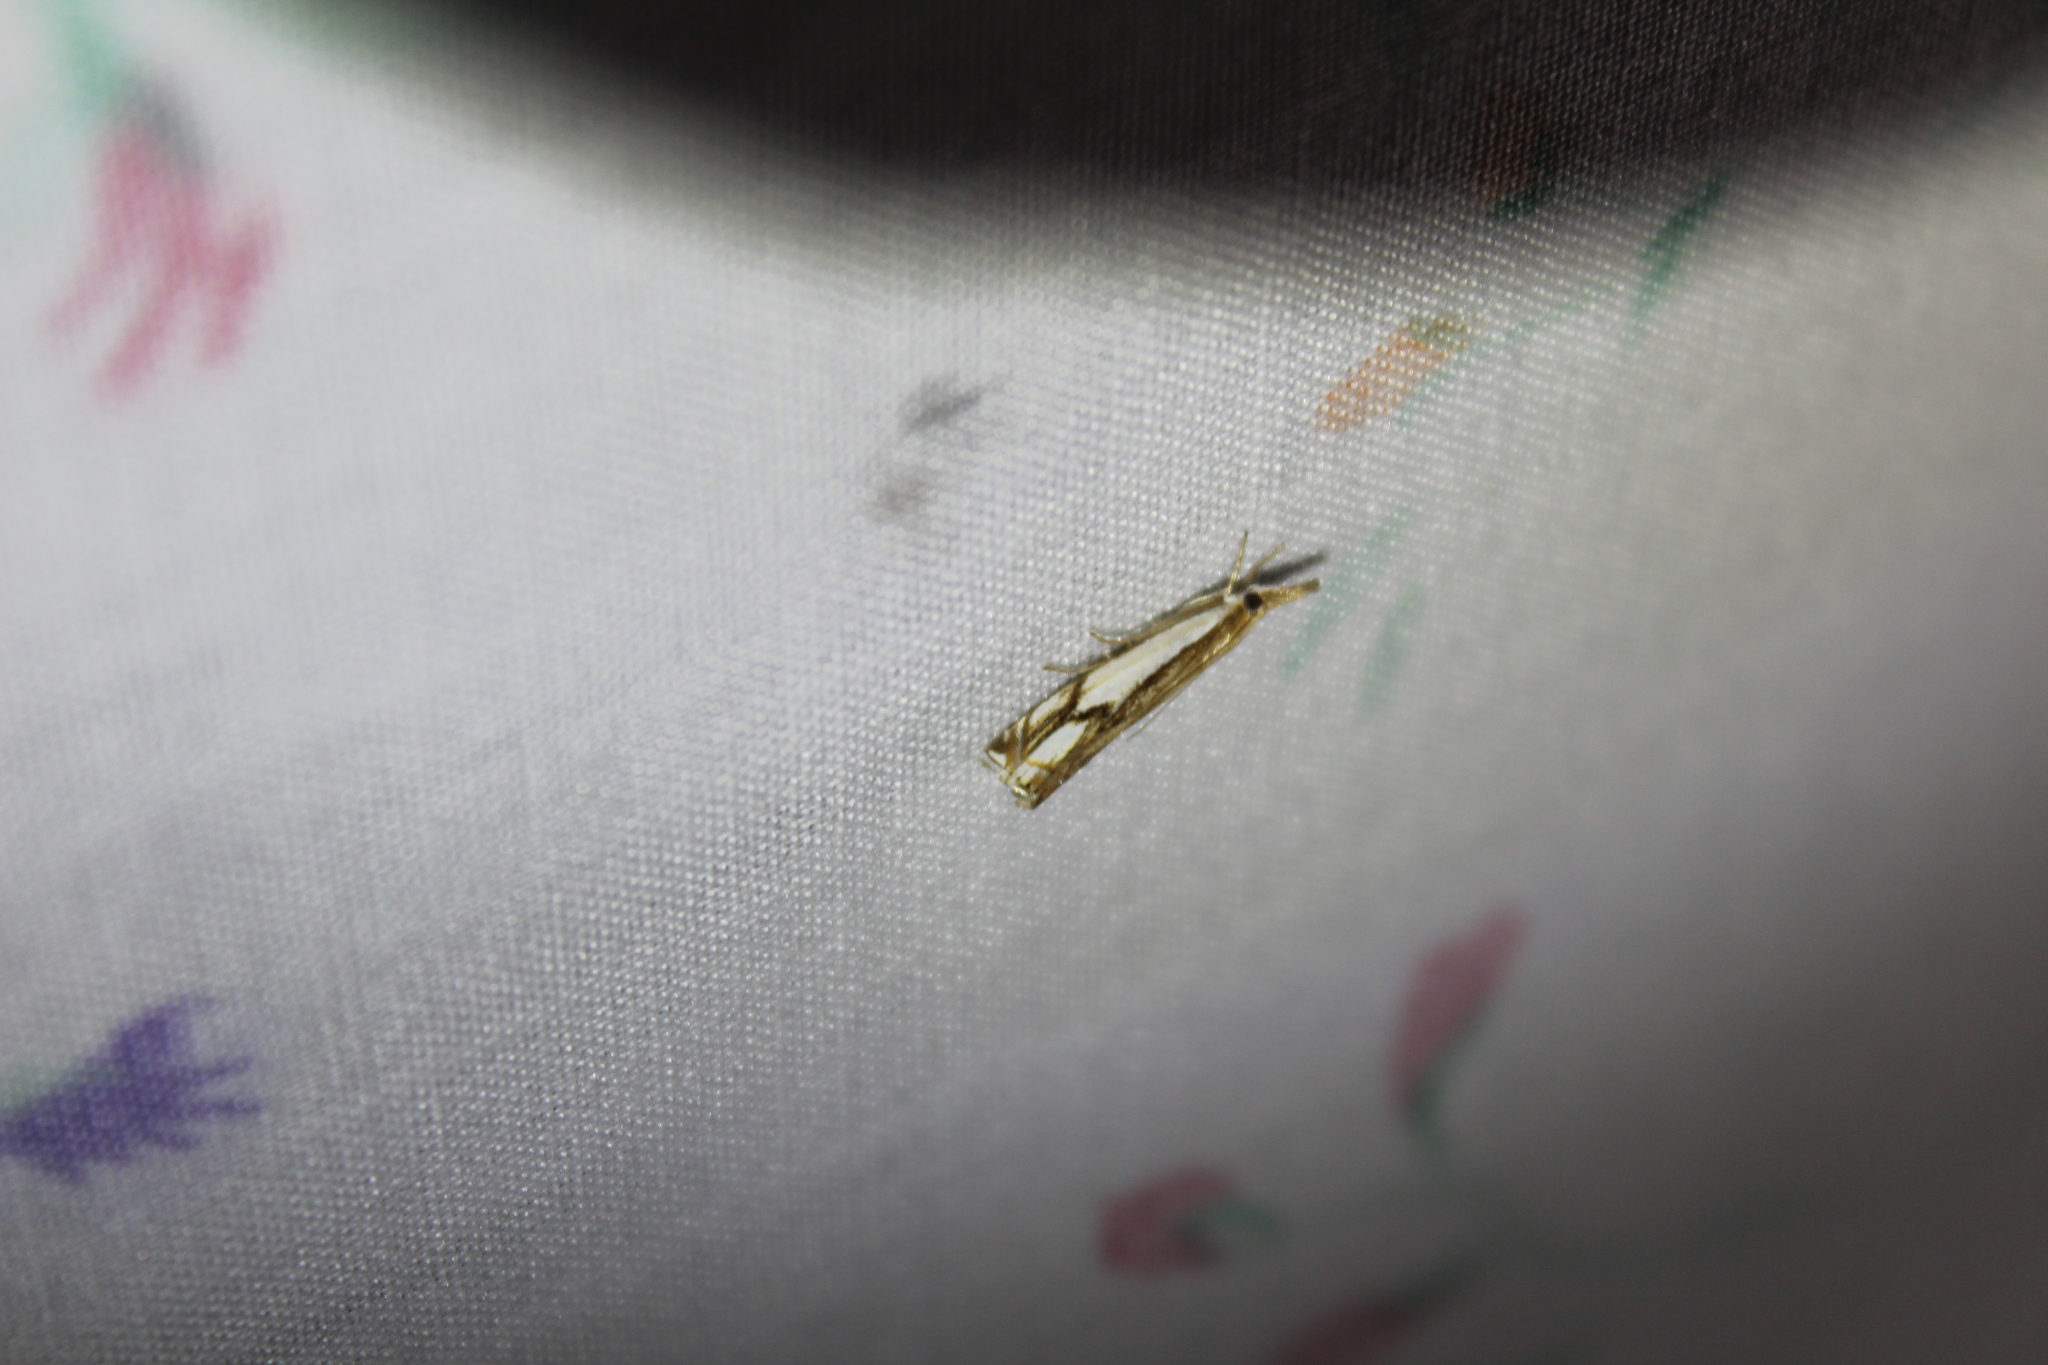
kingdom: Animalia
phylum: Arthropoda
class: Insecta
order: Lepidoptera
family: Crambidae
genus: Crambus
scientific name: Crambus agitatellus
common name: Double-banded grass-veneer
